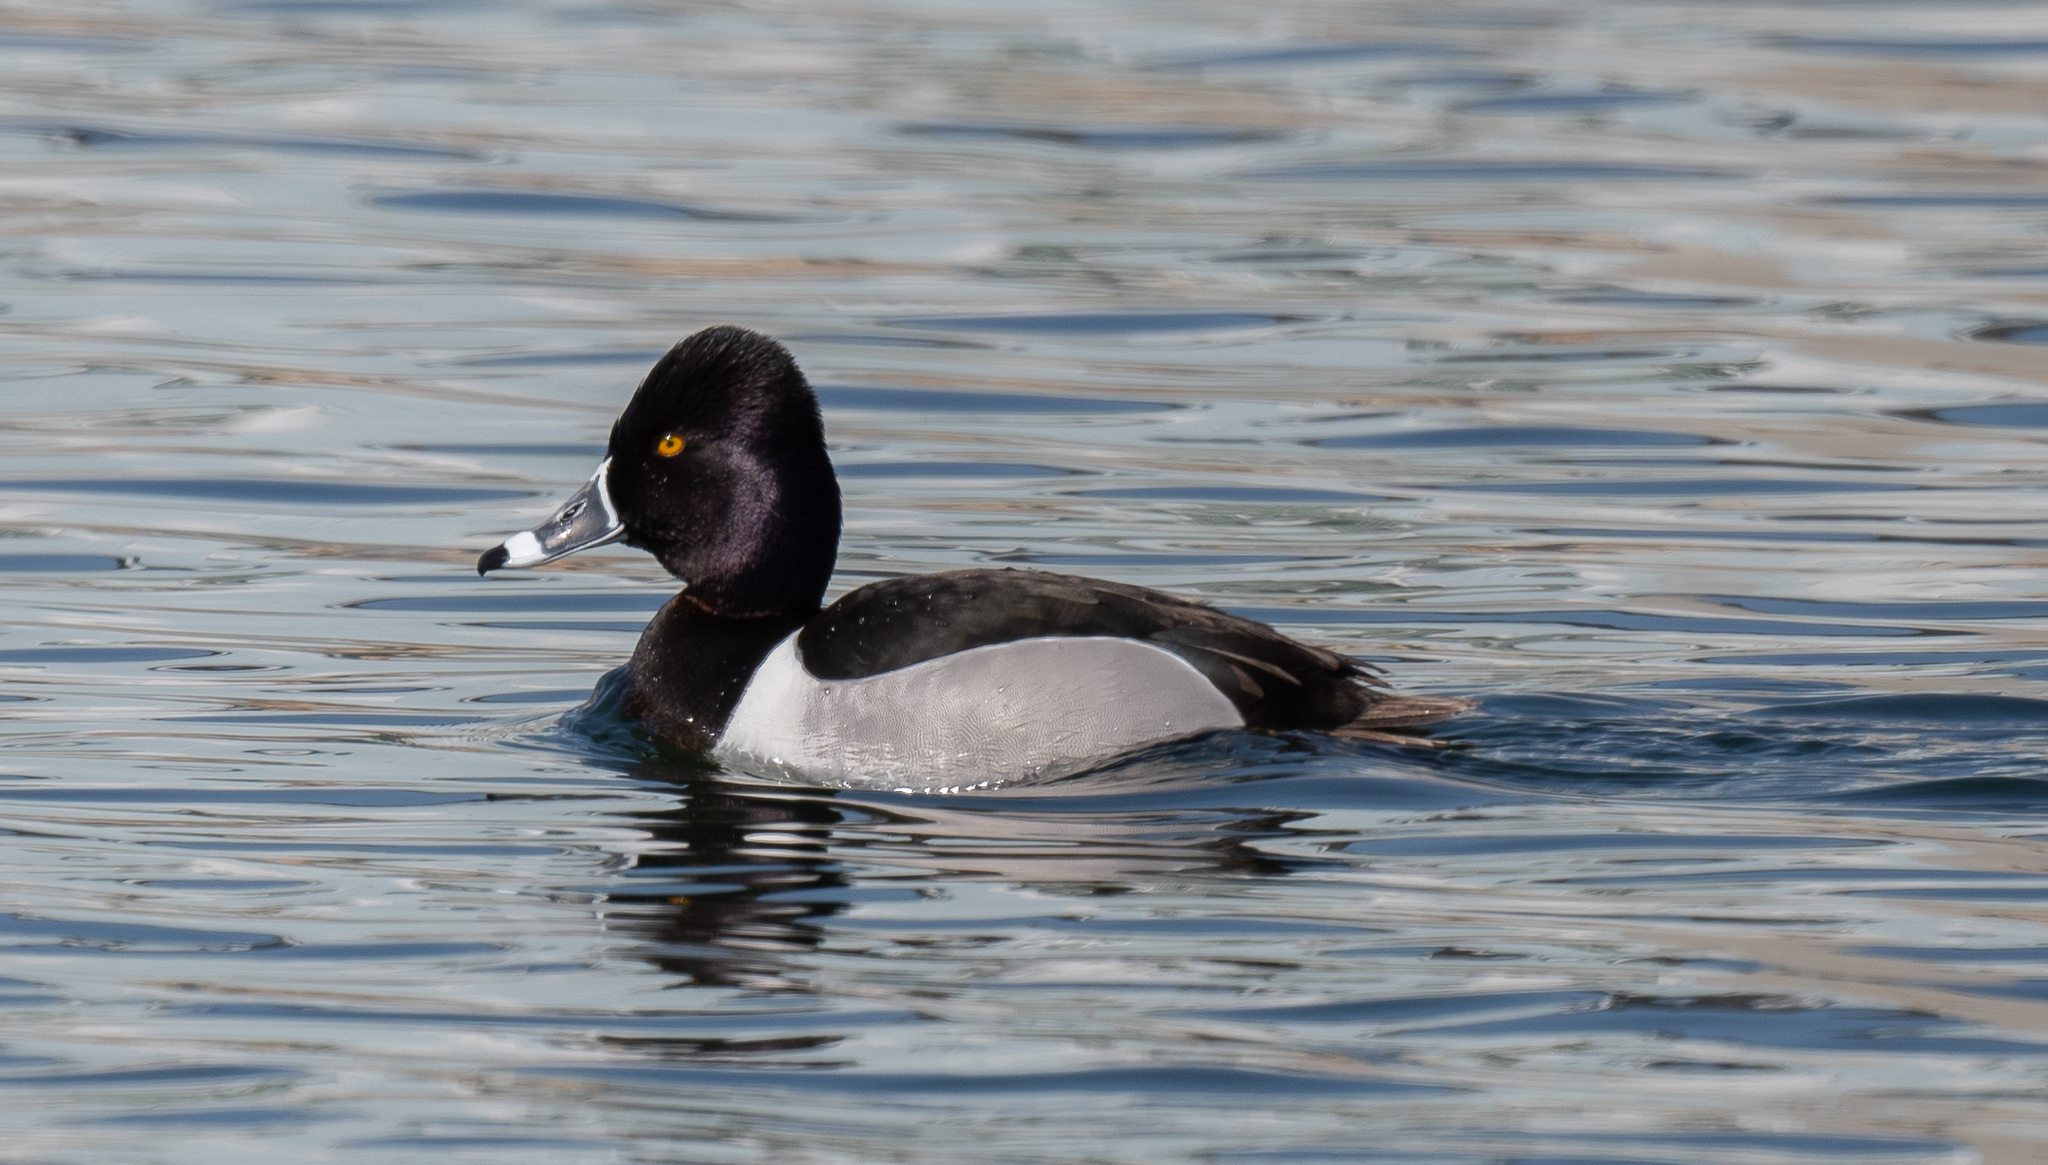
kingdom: Animalia
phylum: Chordata
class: Aves
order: Anseriformes
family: Anatidae
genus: Aythya
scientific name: Aythya collaris
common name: Ring-necked duck
